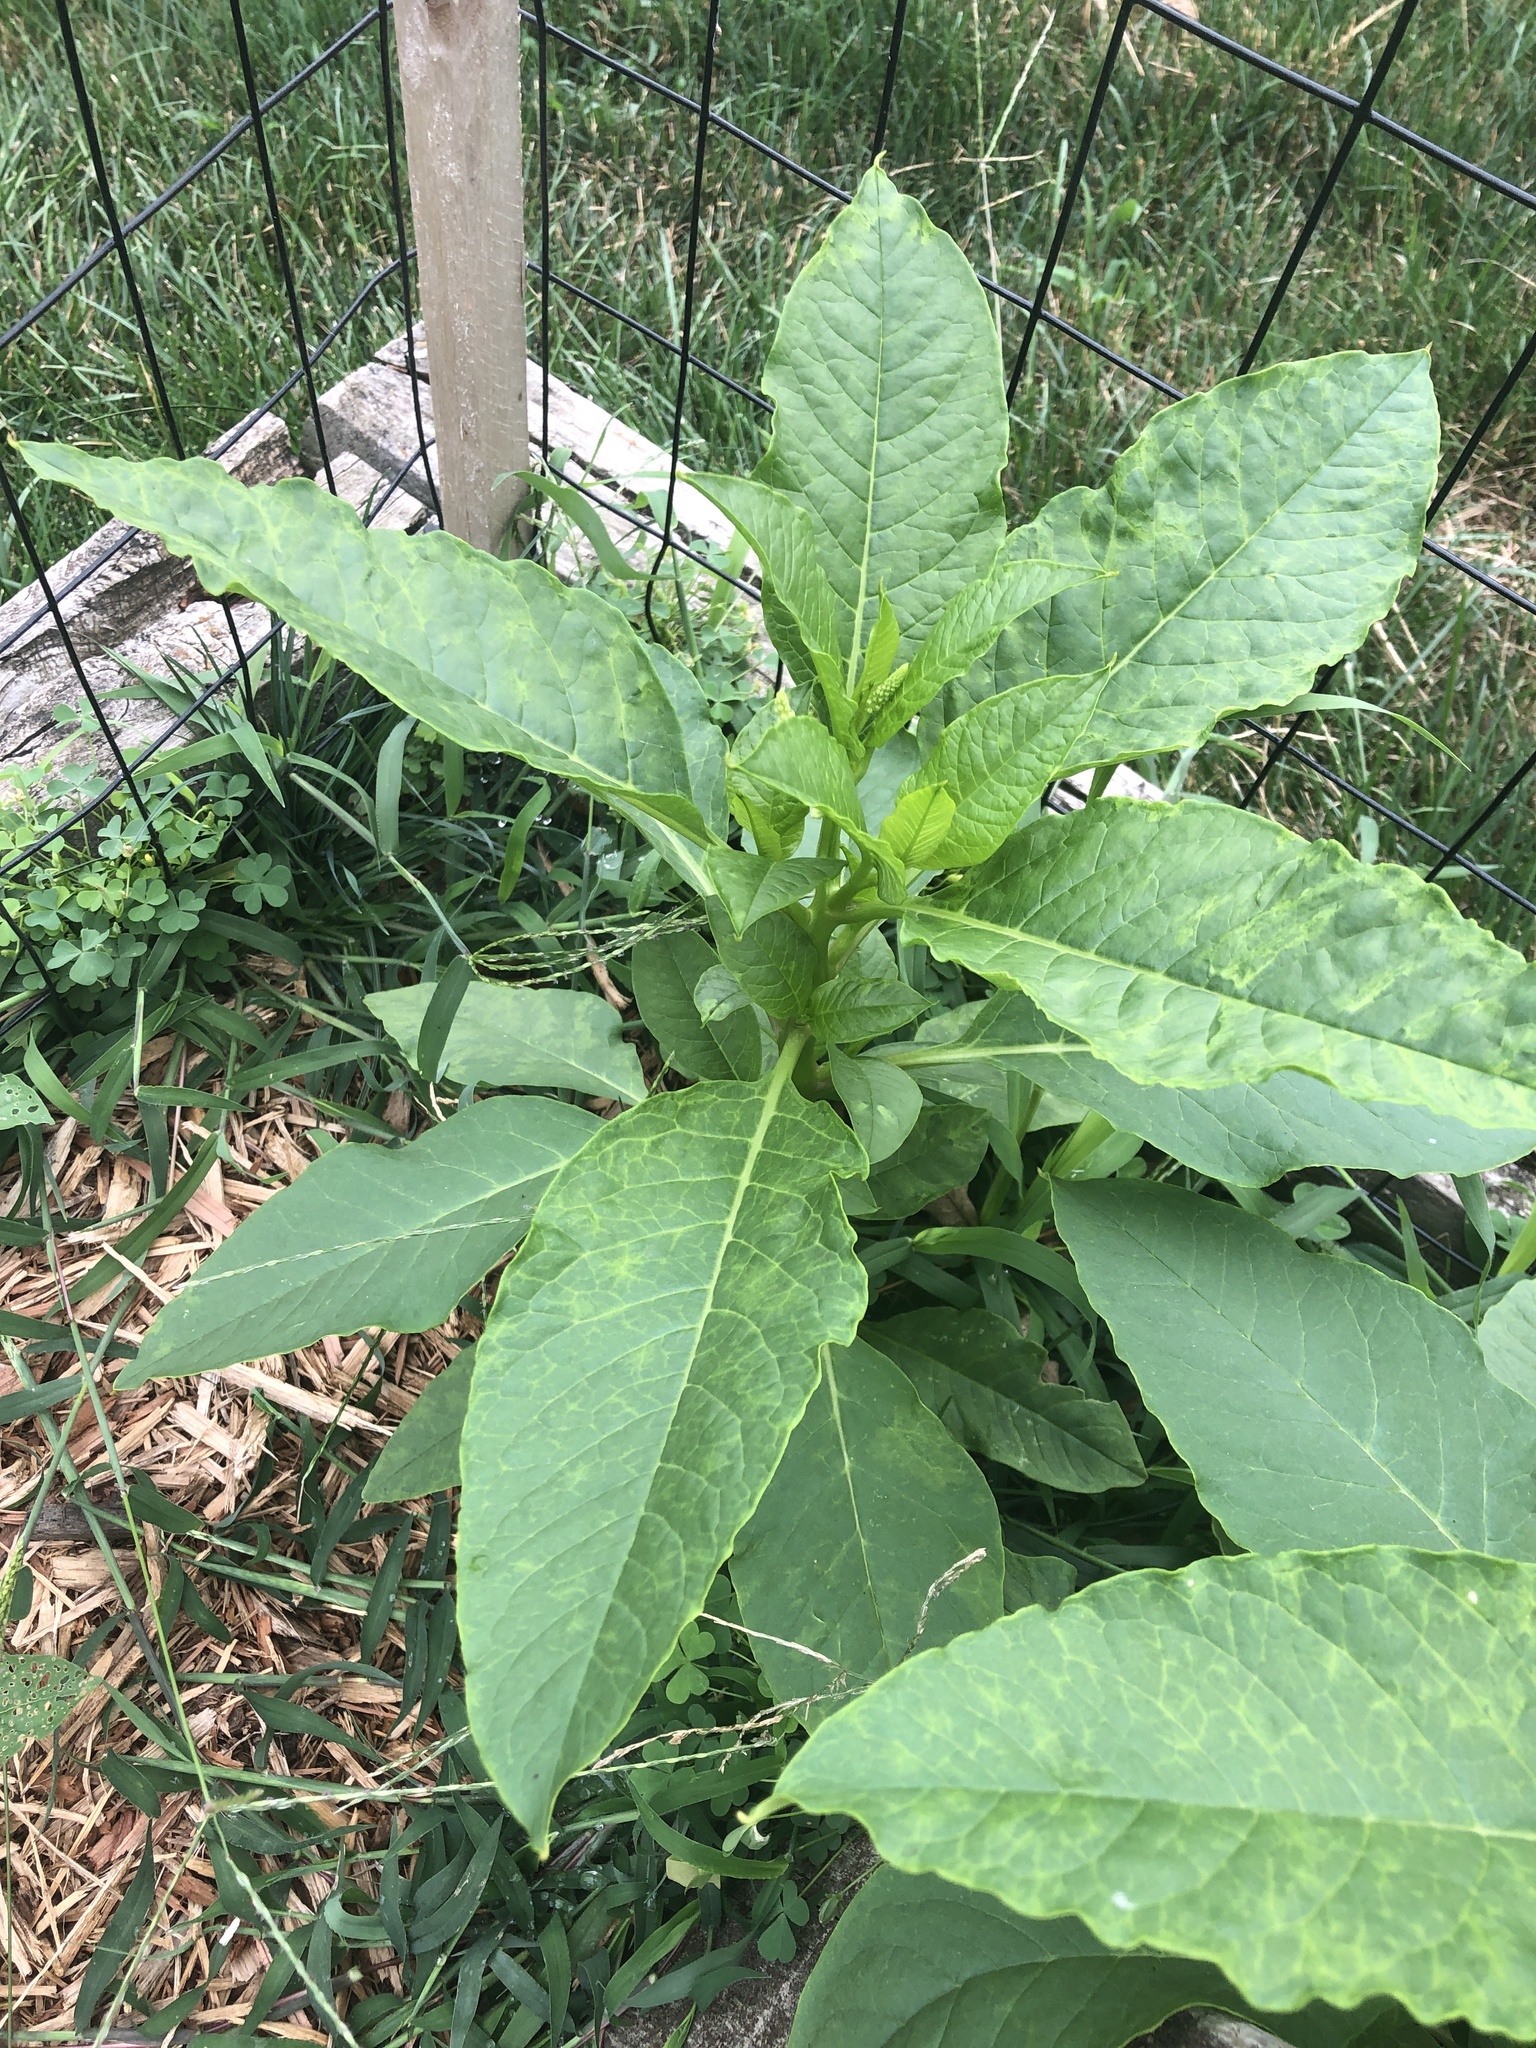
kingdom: Plantae
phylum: Tracheophyta
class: Magnoliopsida
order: Caryophyllales
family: Phytolaccaceae
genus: Phytolacca
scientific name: Phytolacca americana
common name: American pokeweed
